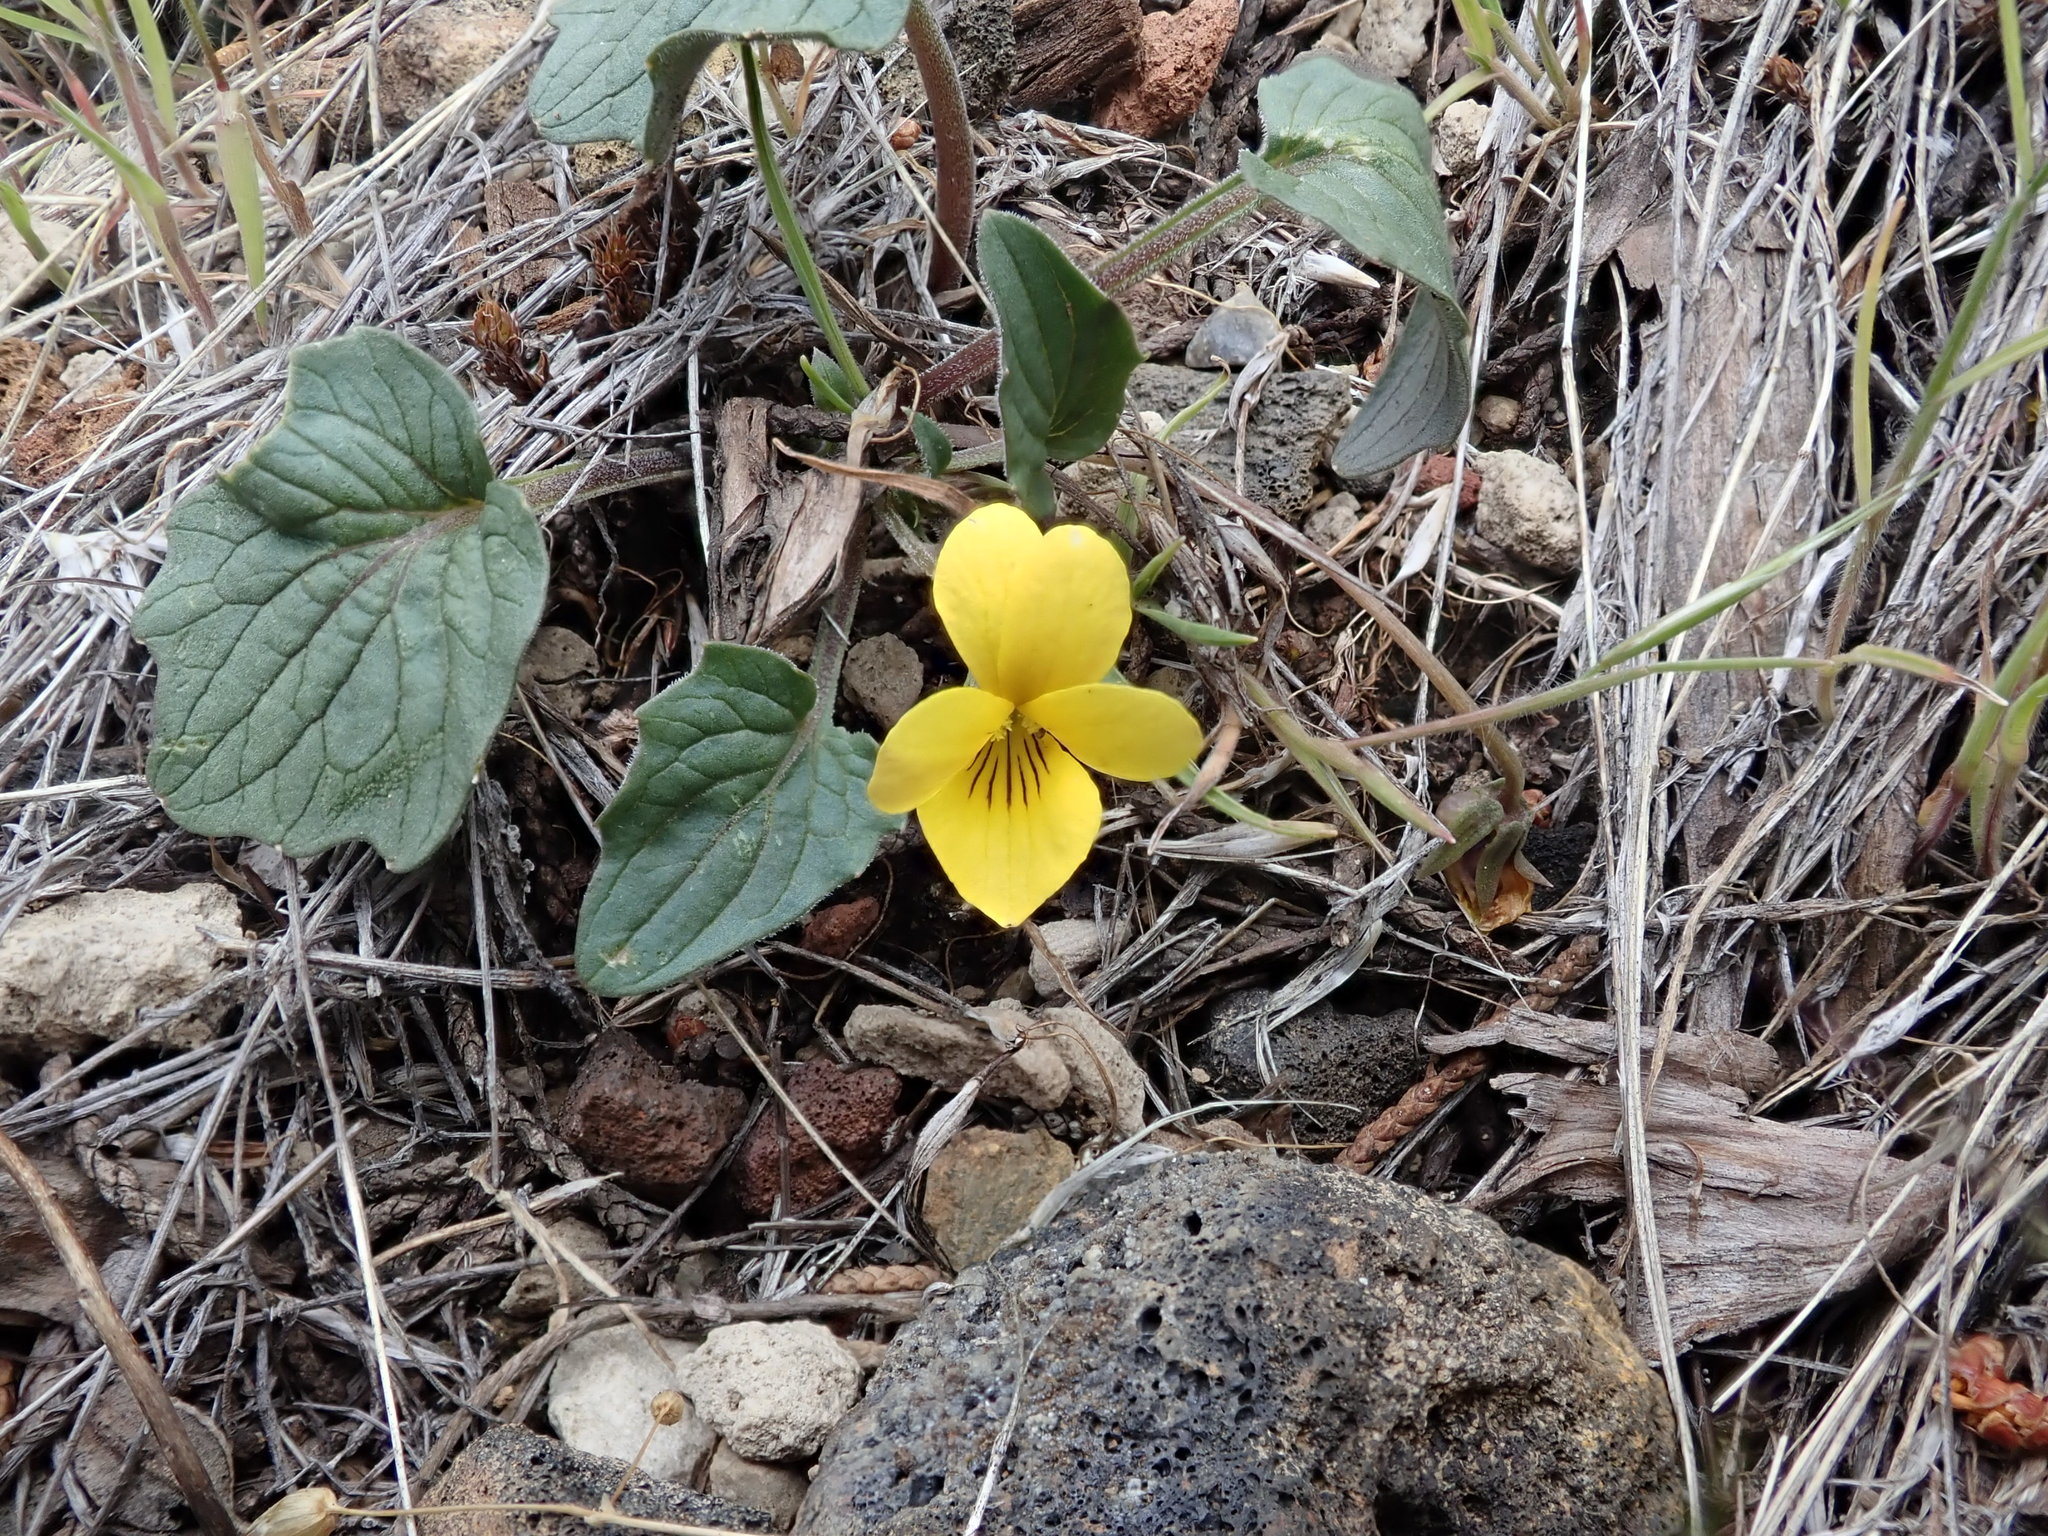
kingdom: Plantae
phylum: Tracheophyta
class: Magnoliopsida
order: Malpighiales
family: Violaceae
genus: Viola
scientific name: Viola purpurea
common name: Pine violet
